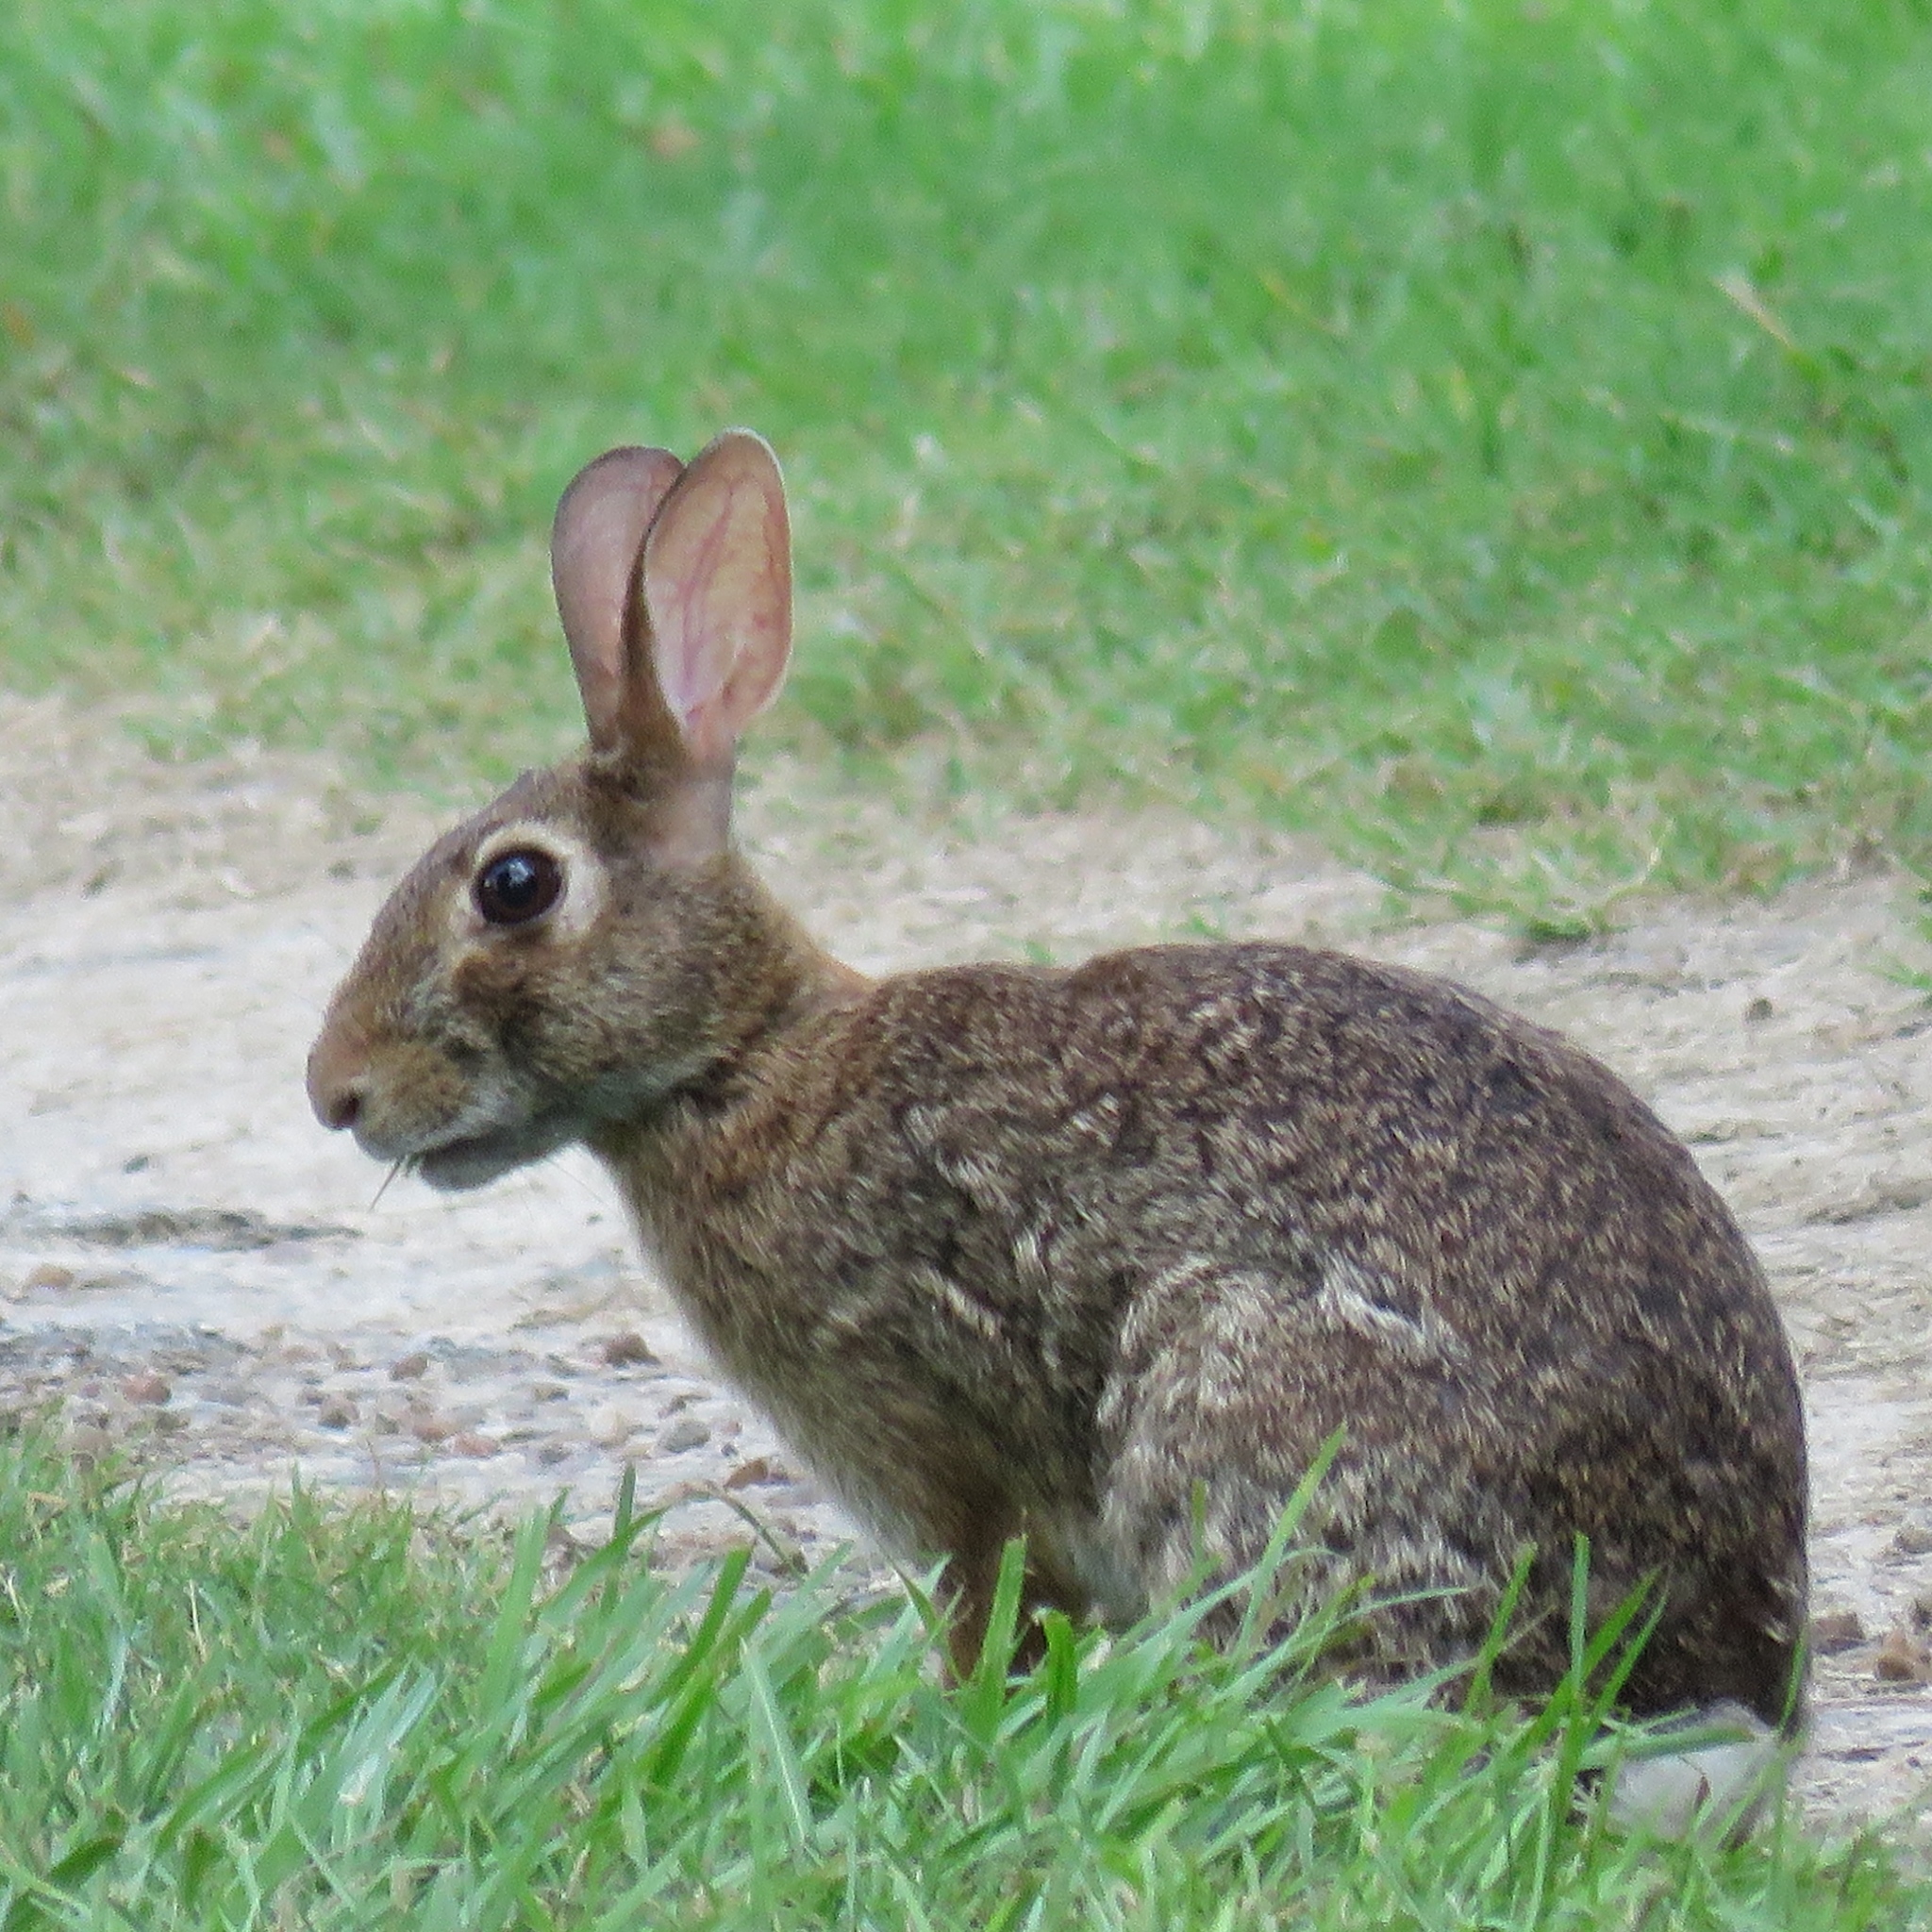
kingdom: Animalia
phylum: Chordata
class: Mammalia
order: Lagomorpha
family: Leporidae
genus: Sylvilagus
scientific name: Sylvilagus floridanus
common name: Eastern cottontail
